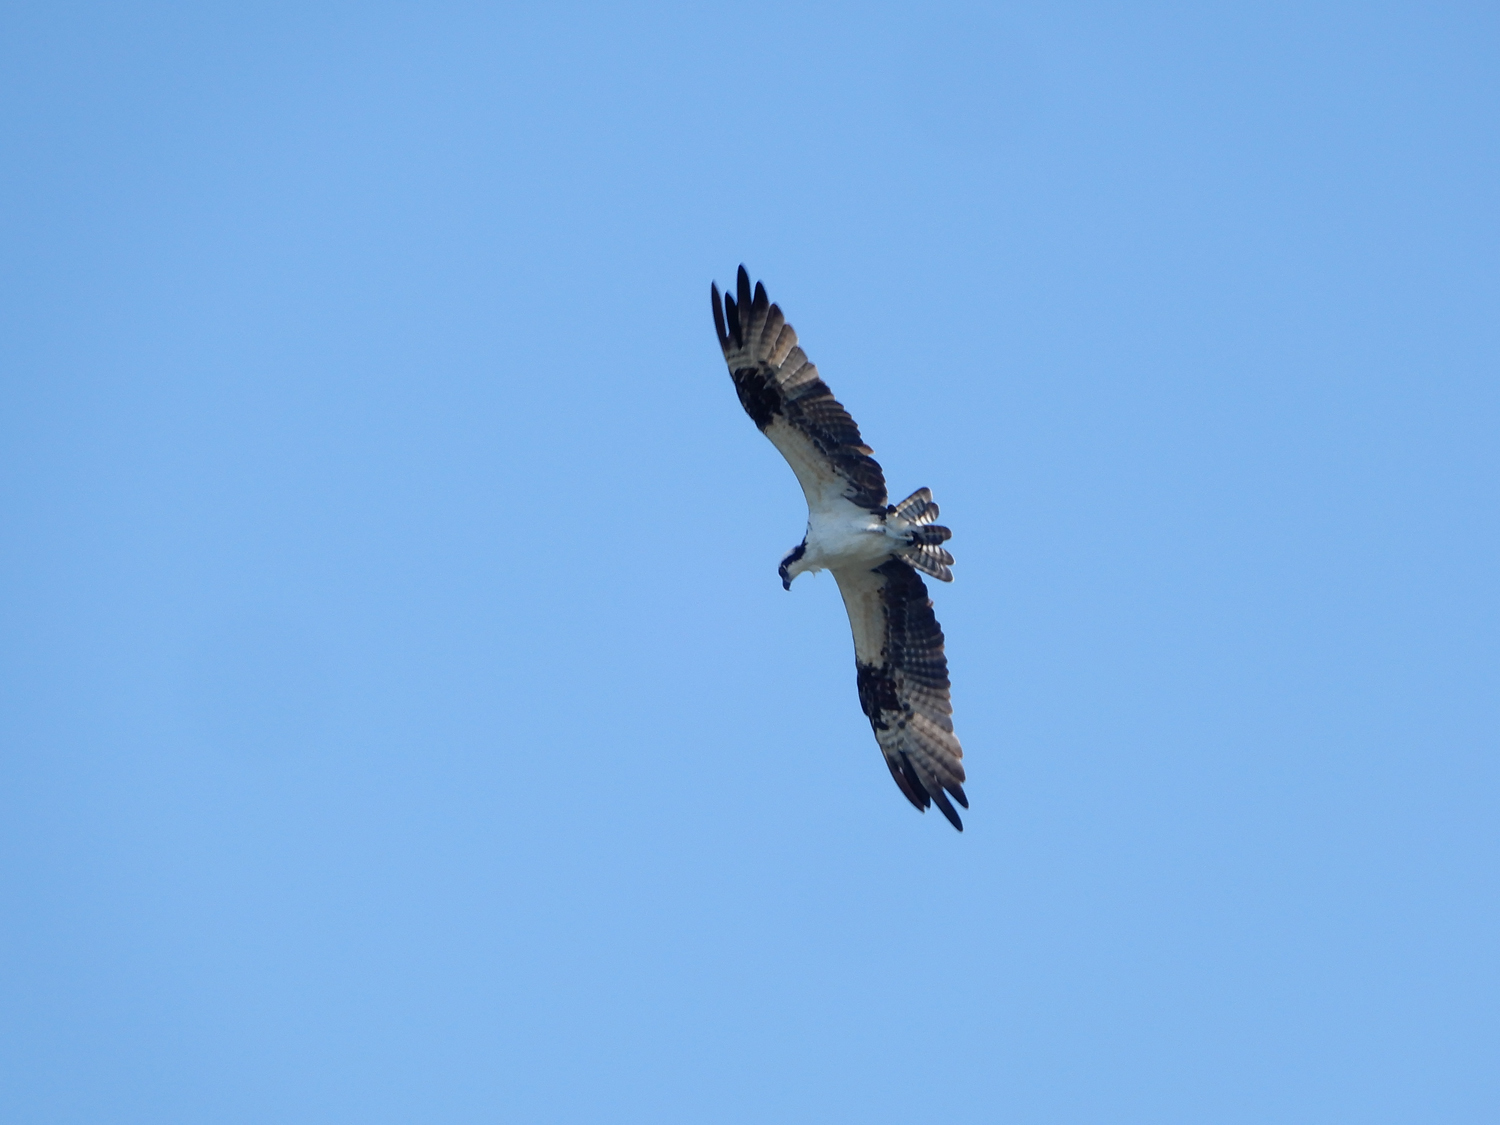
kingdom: Animalia
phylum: Chordata
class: Aves
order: Accipitriformes
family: Pandionidae
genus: Pandion
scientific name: Pandion haliaetus
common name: Osprey
